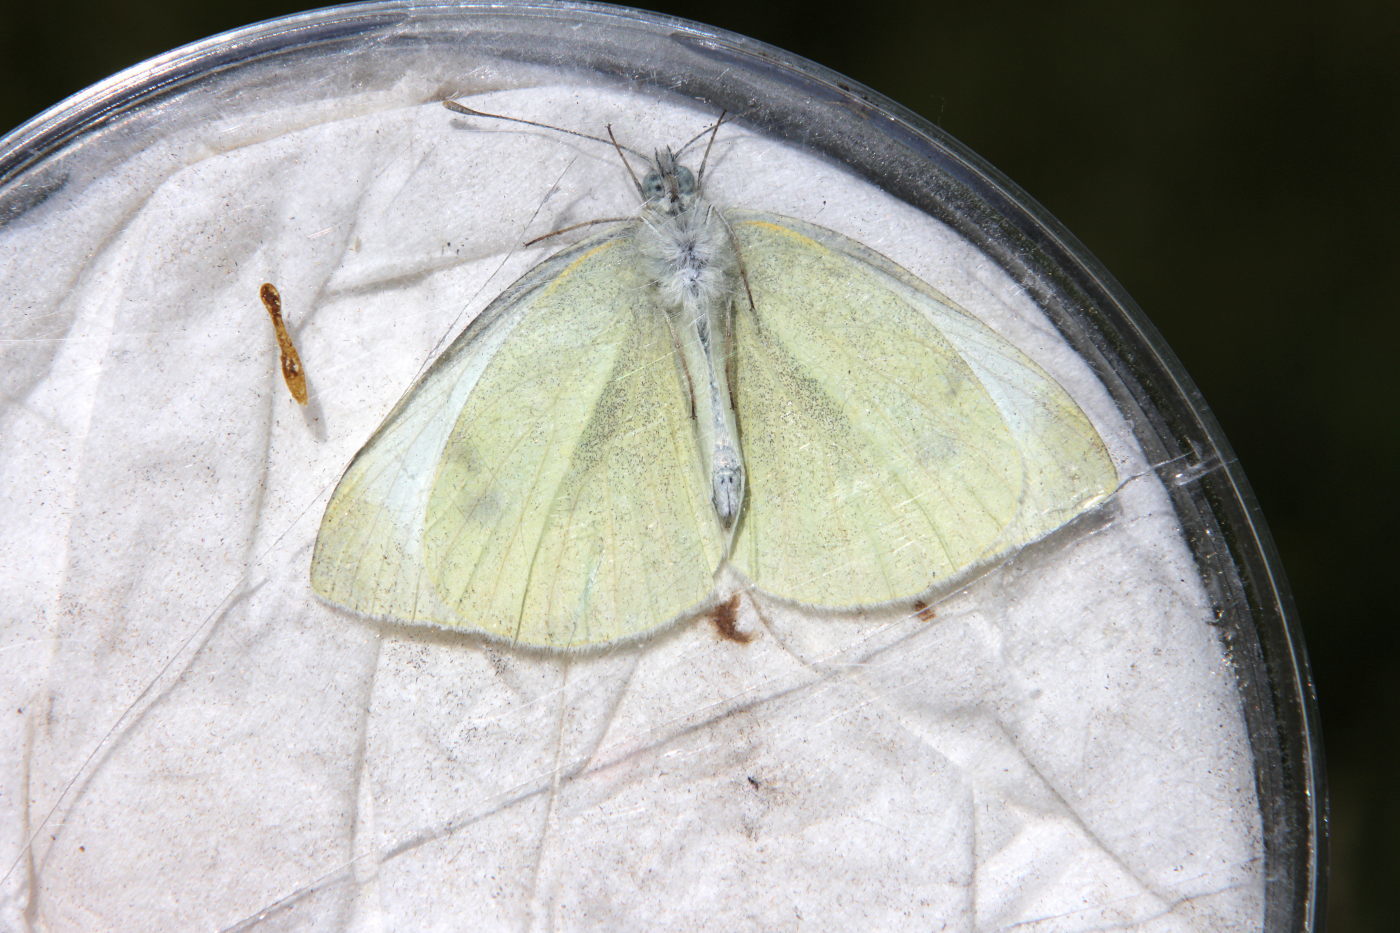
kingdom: Animalia
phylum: Arthropoda
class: Insecta
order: Lepidoptera
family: Pieridae
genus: Pieris
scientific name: Pieris rapae
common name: Small white
